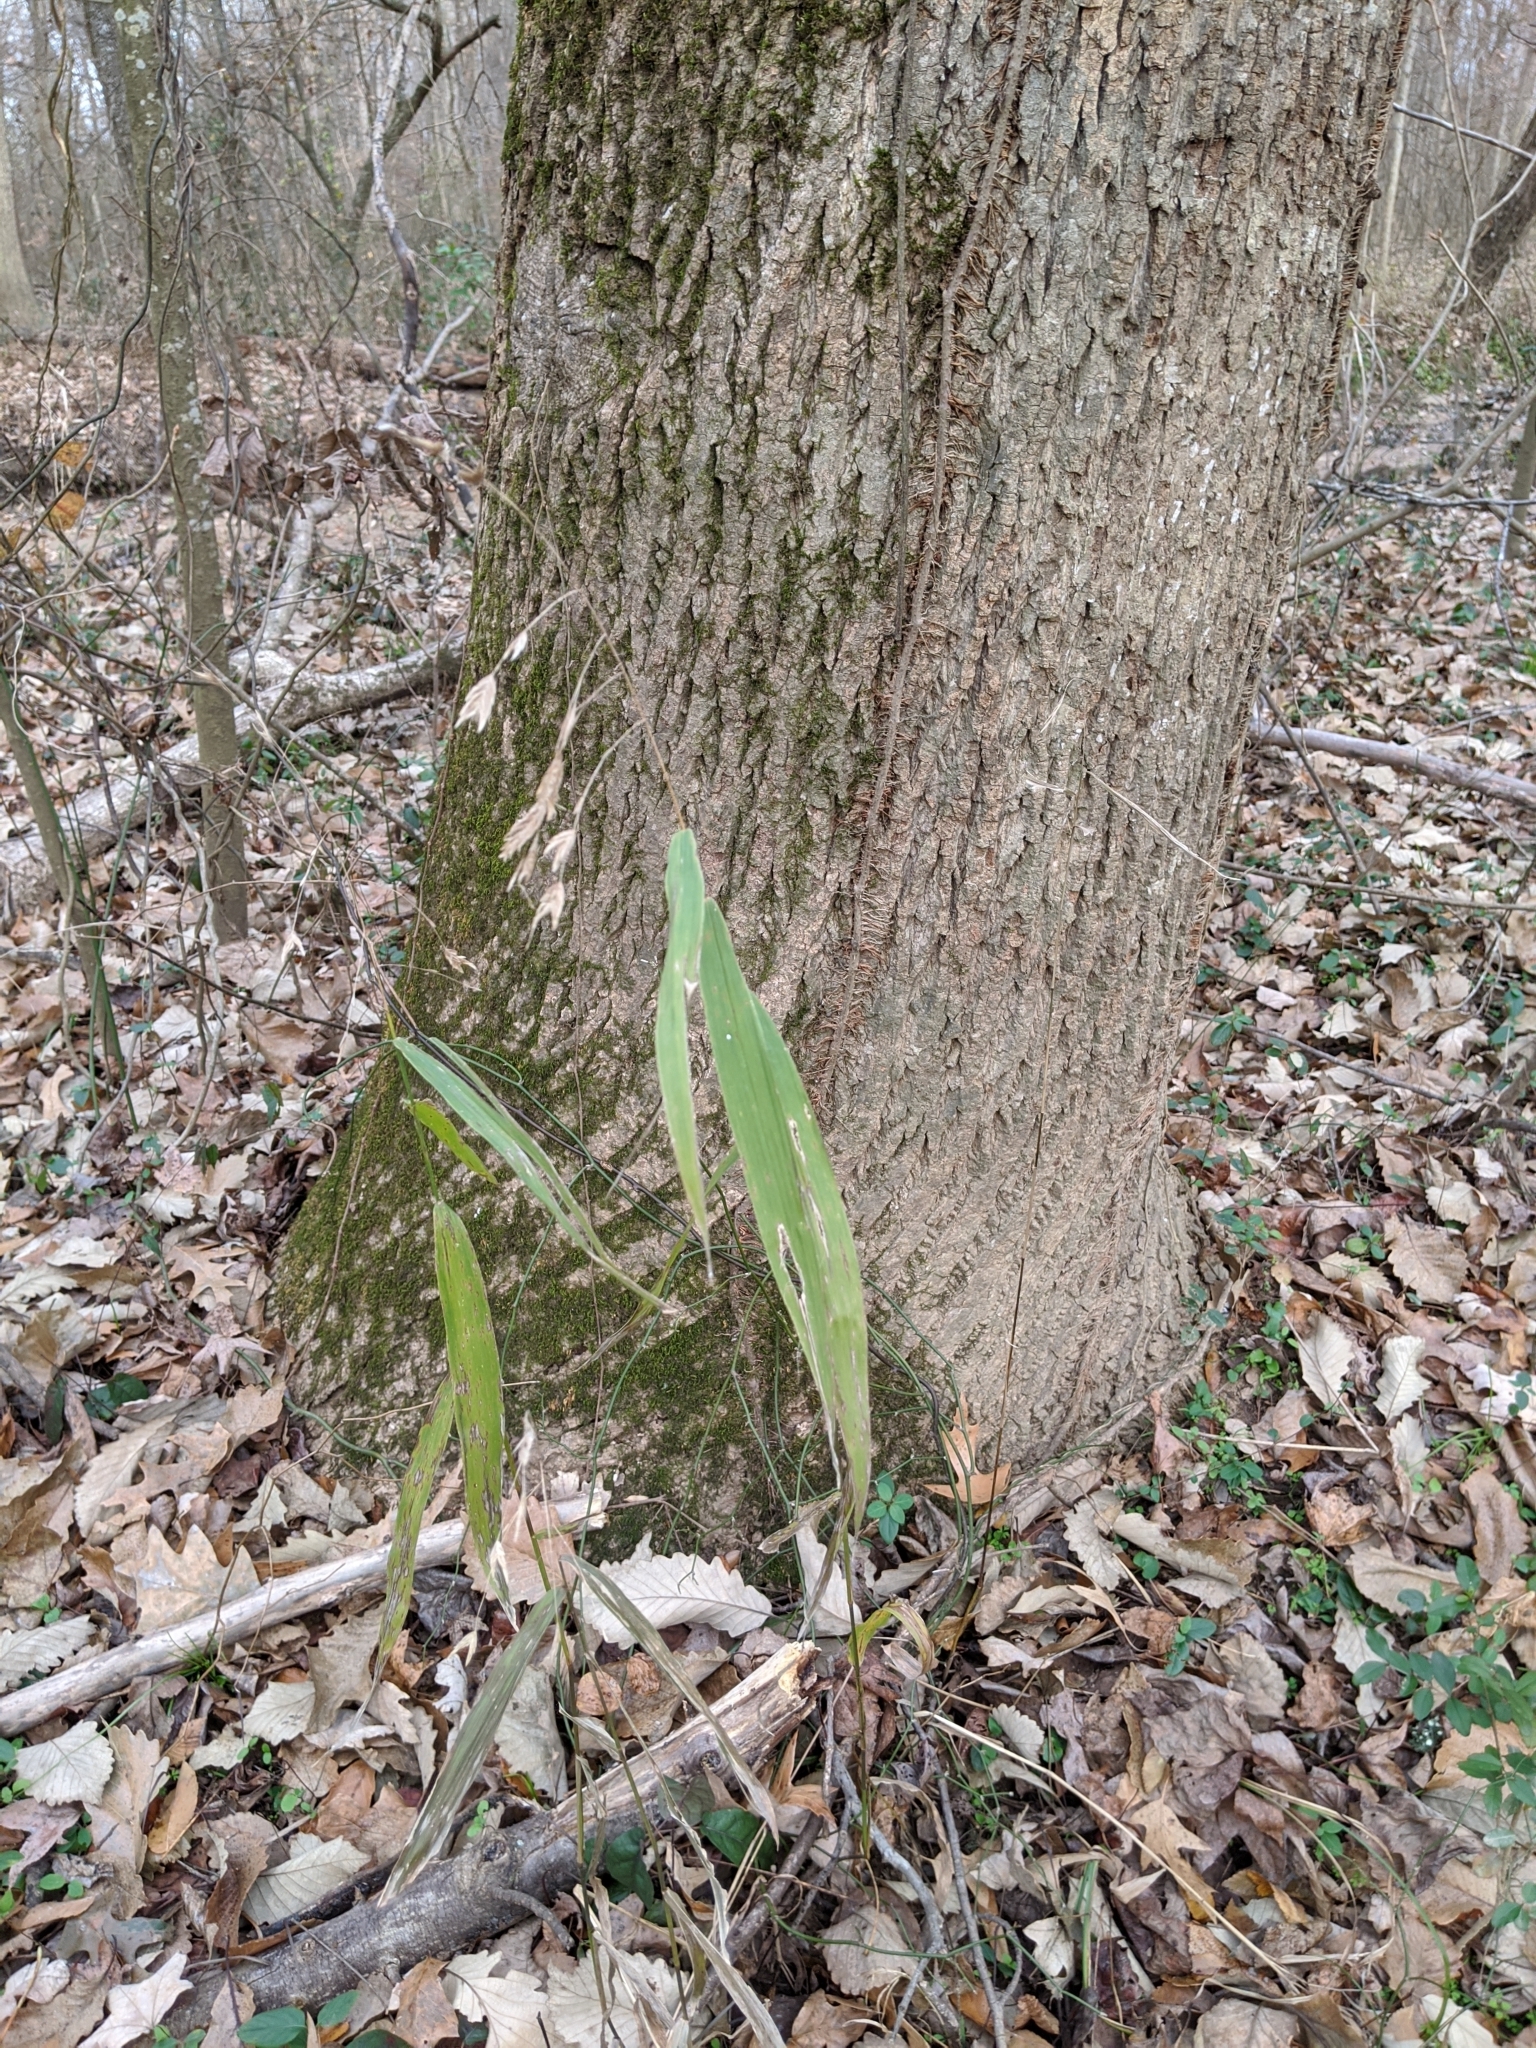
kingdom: Plantae
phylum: Tracheophyta
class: Liliopsida
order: Poales
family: Poaceae
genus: Chasmanthium
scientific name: Chasmanthium latifolium
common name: Broad-leaved chasmanthium
